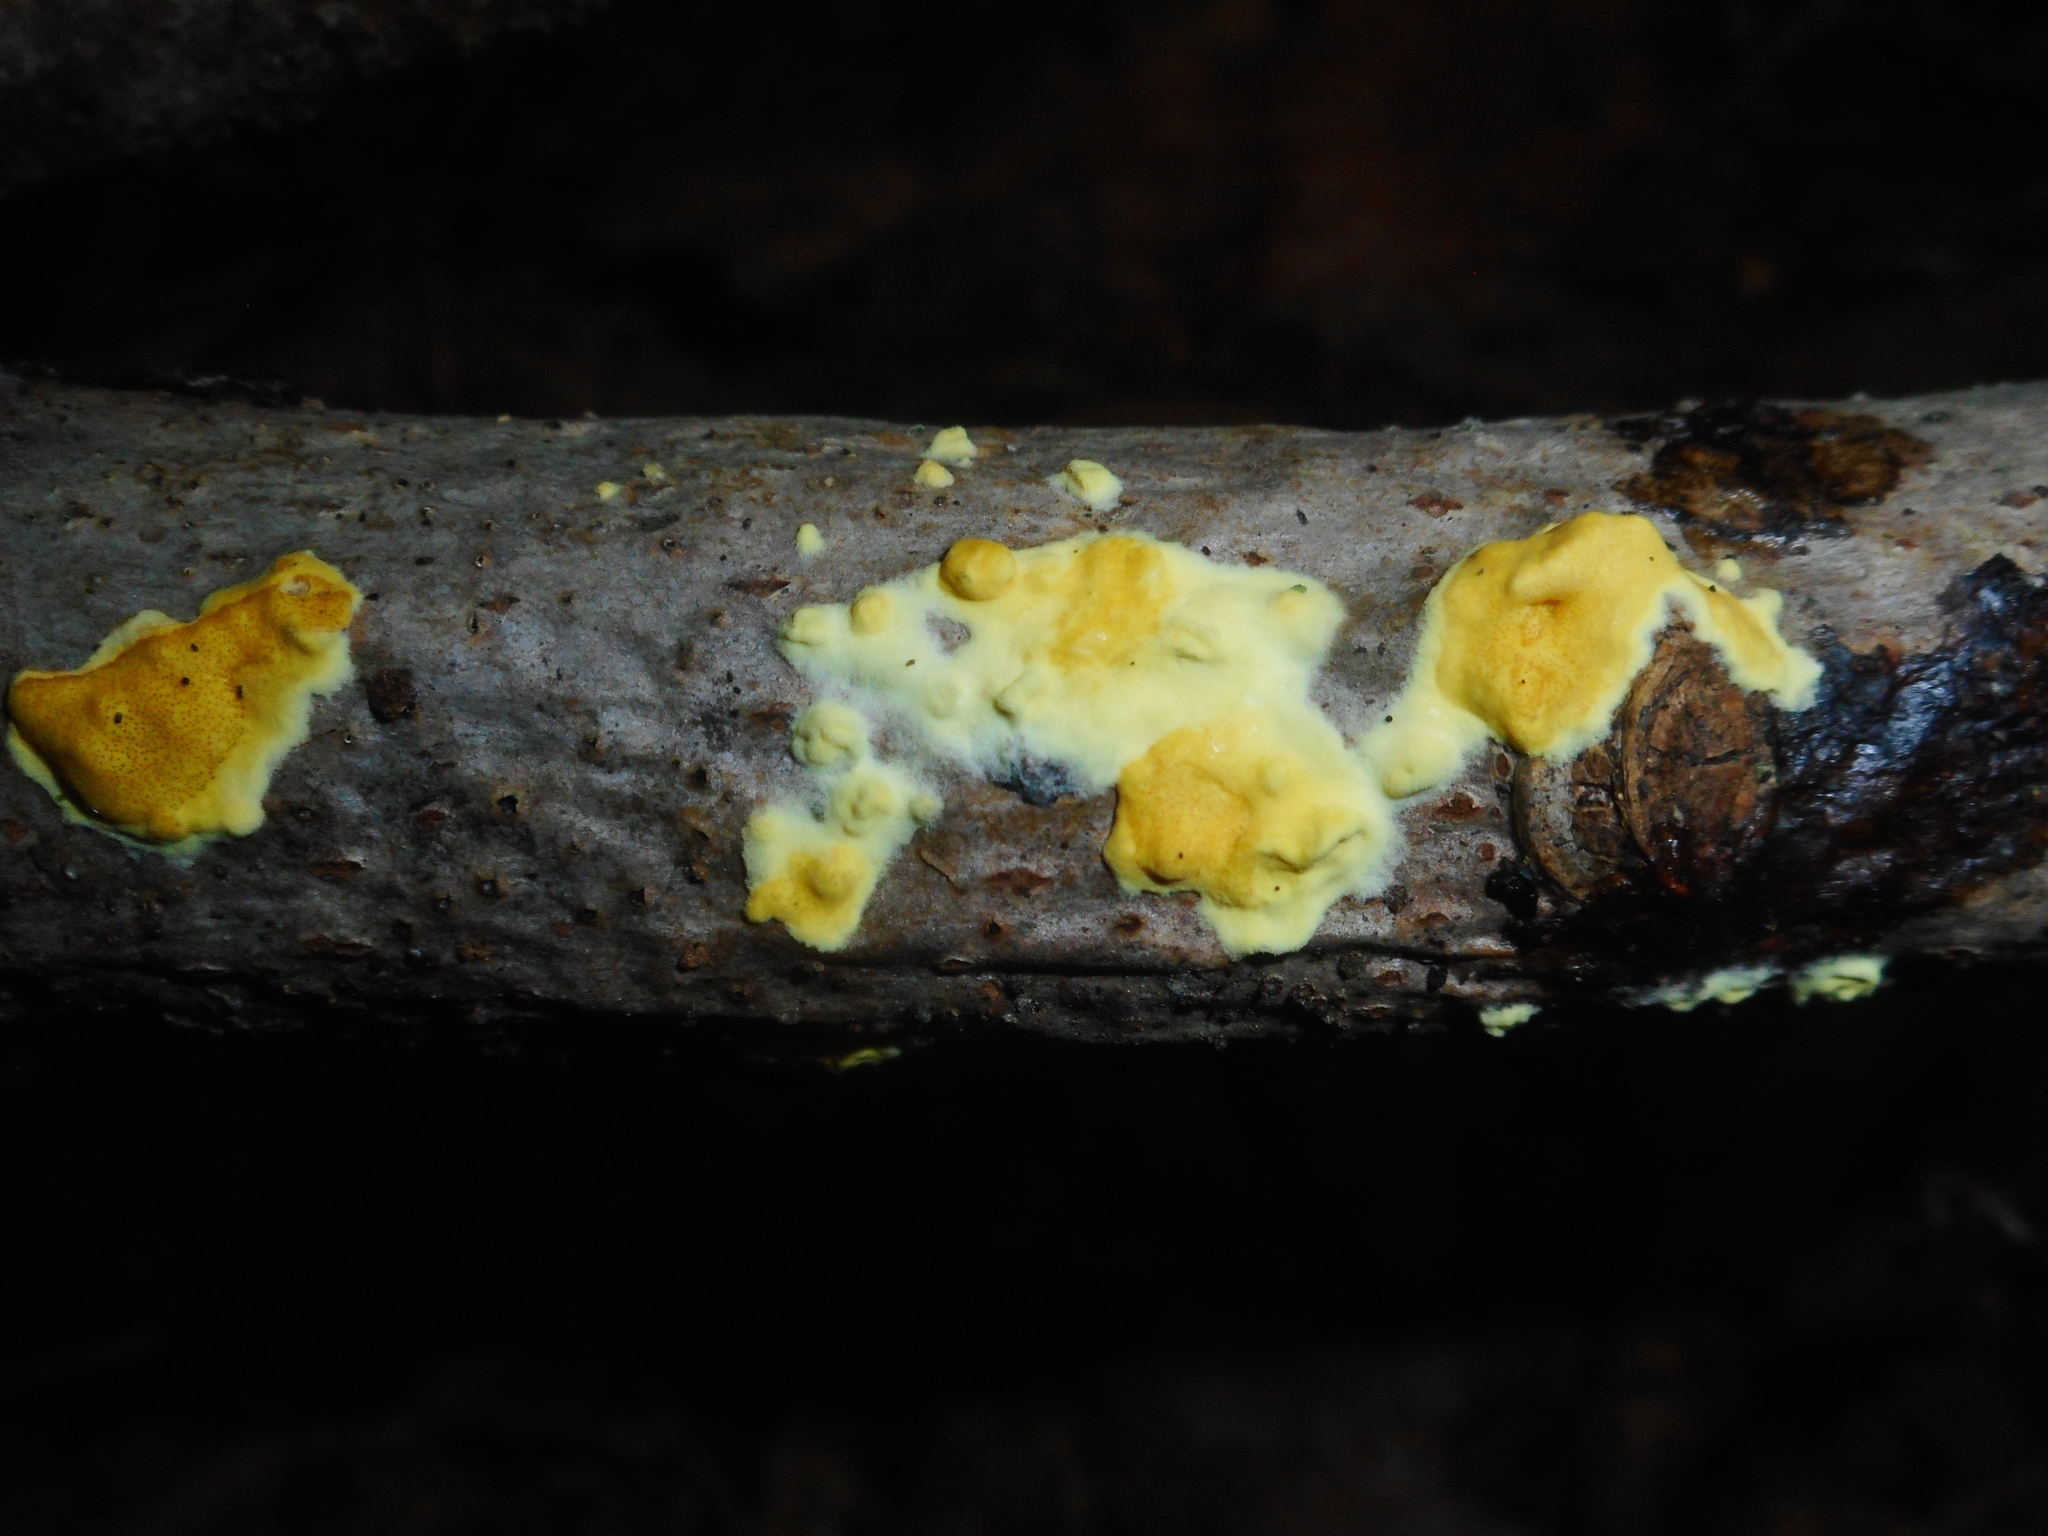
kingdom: Fungi
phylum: Ascomycota
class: Sordariomycetes
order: Hypocreales
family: Hypocreaceae
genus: Trichoderma
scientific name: Trichoderma sulphureum
